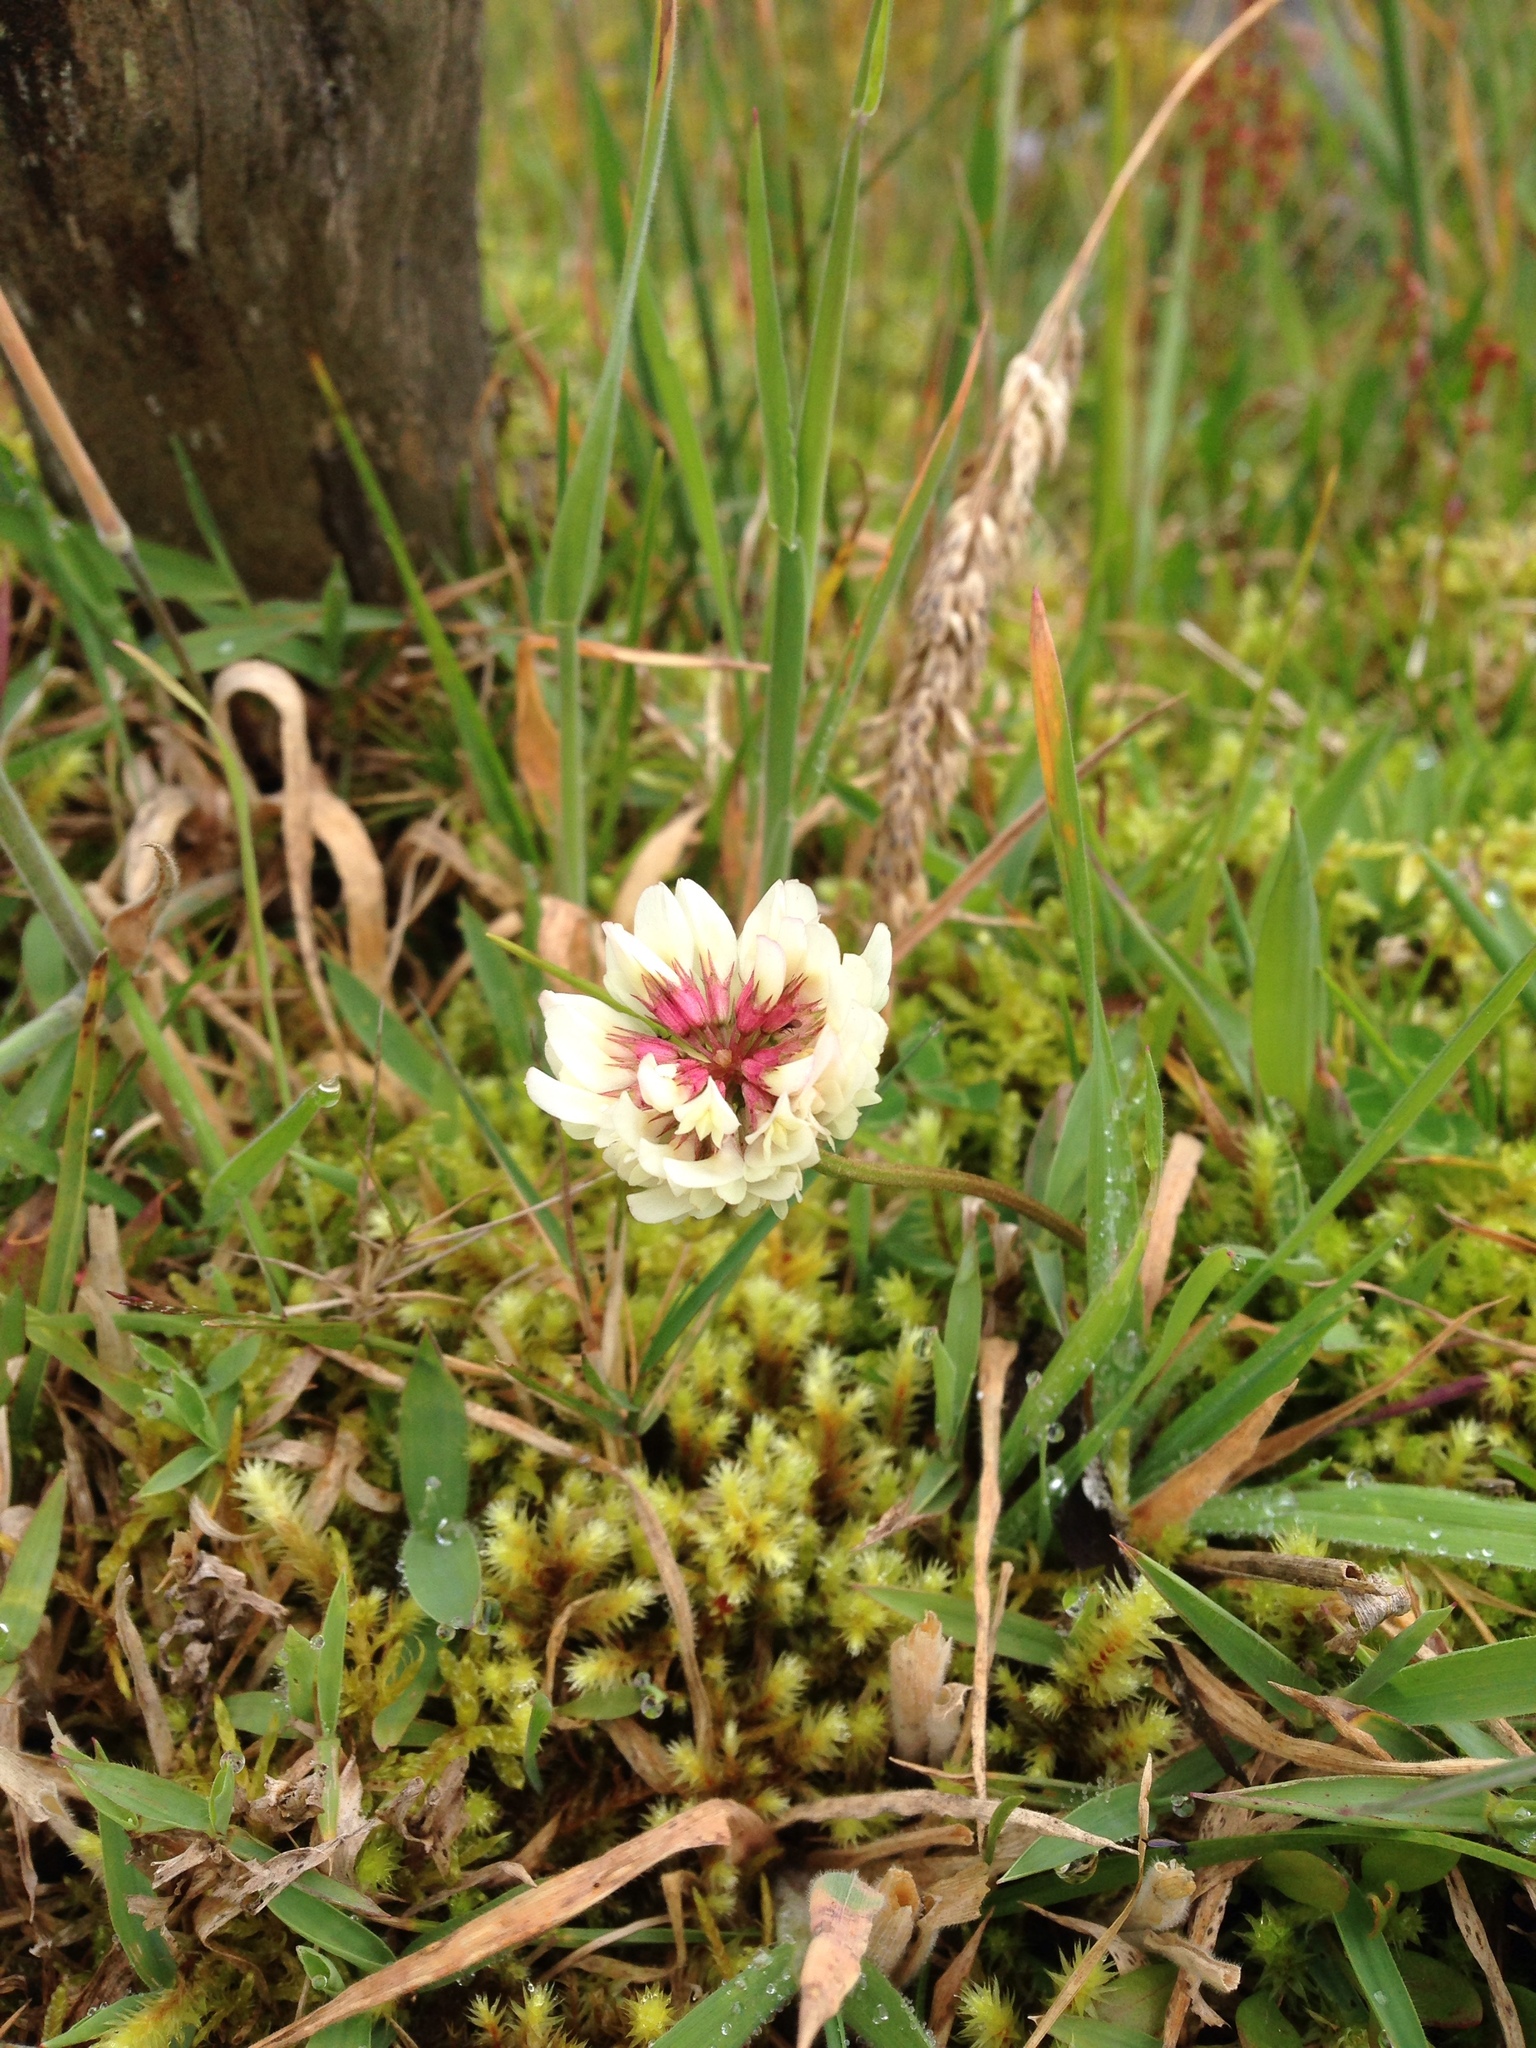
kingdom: Plantae
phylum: Tracheophyta
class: Magnoliopsida
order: Fabales
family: Fabaceae
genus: Trifolium
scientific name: Trifolium repens
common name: White clover
